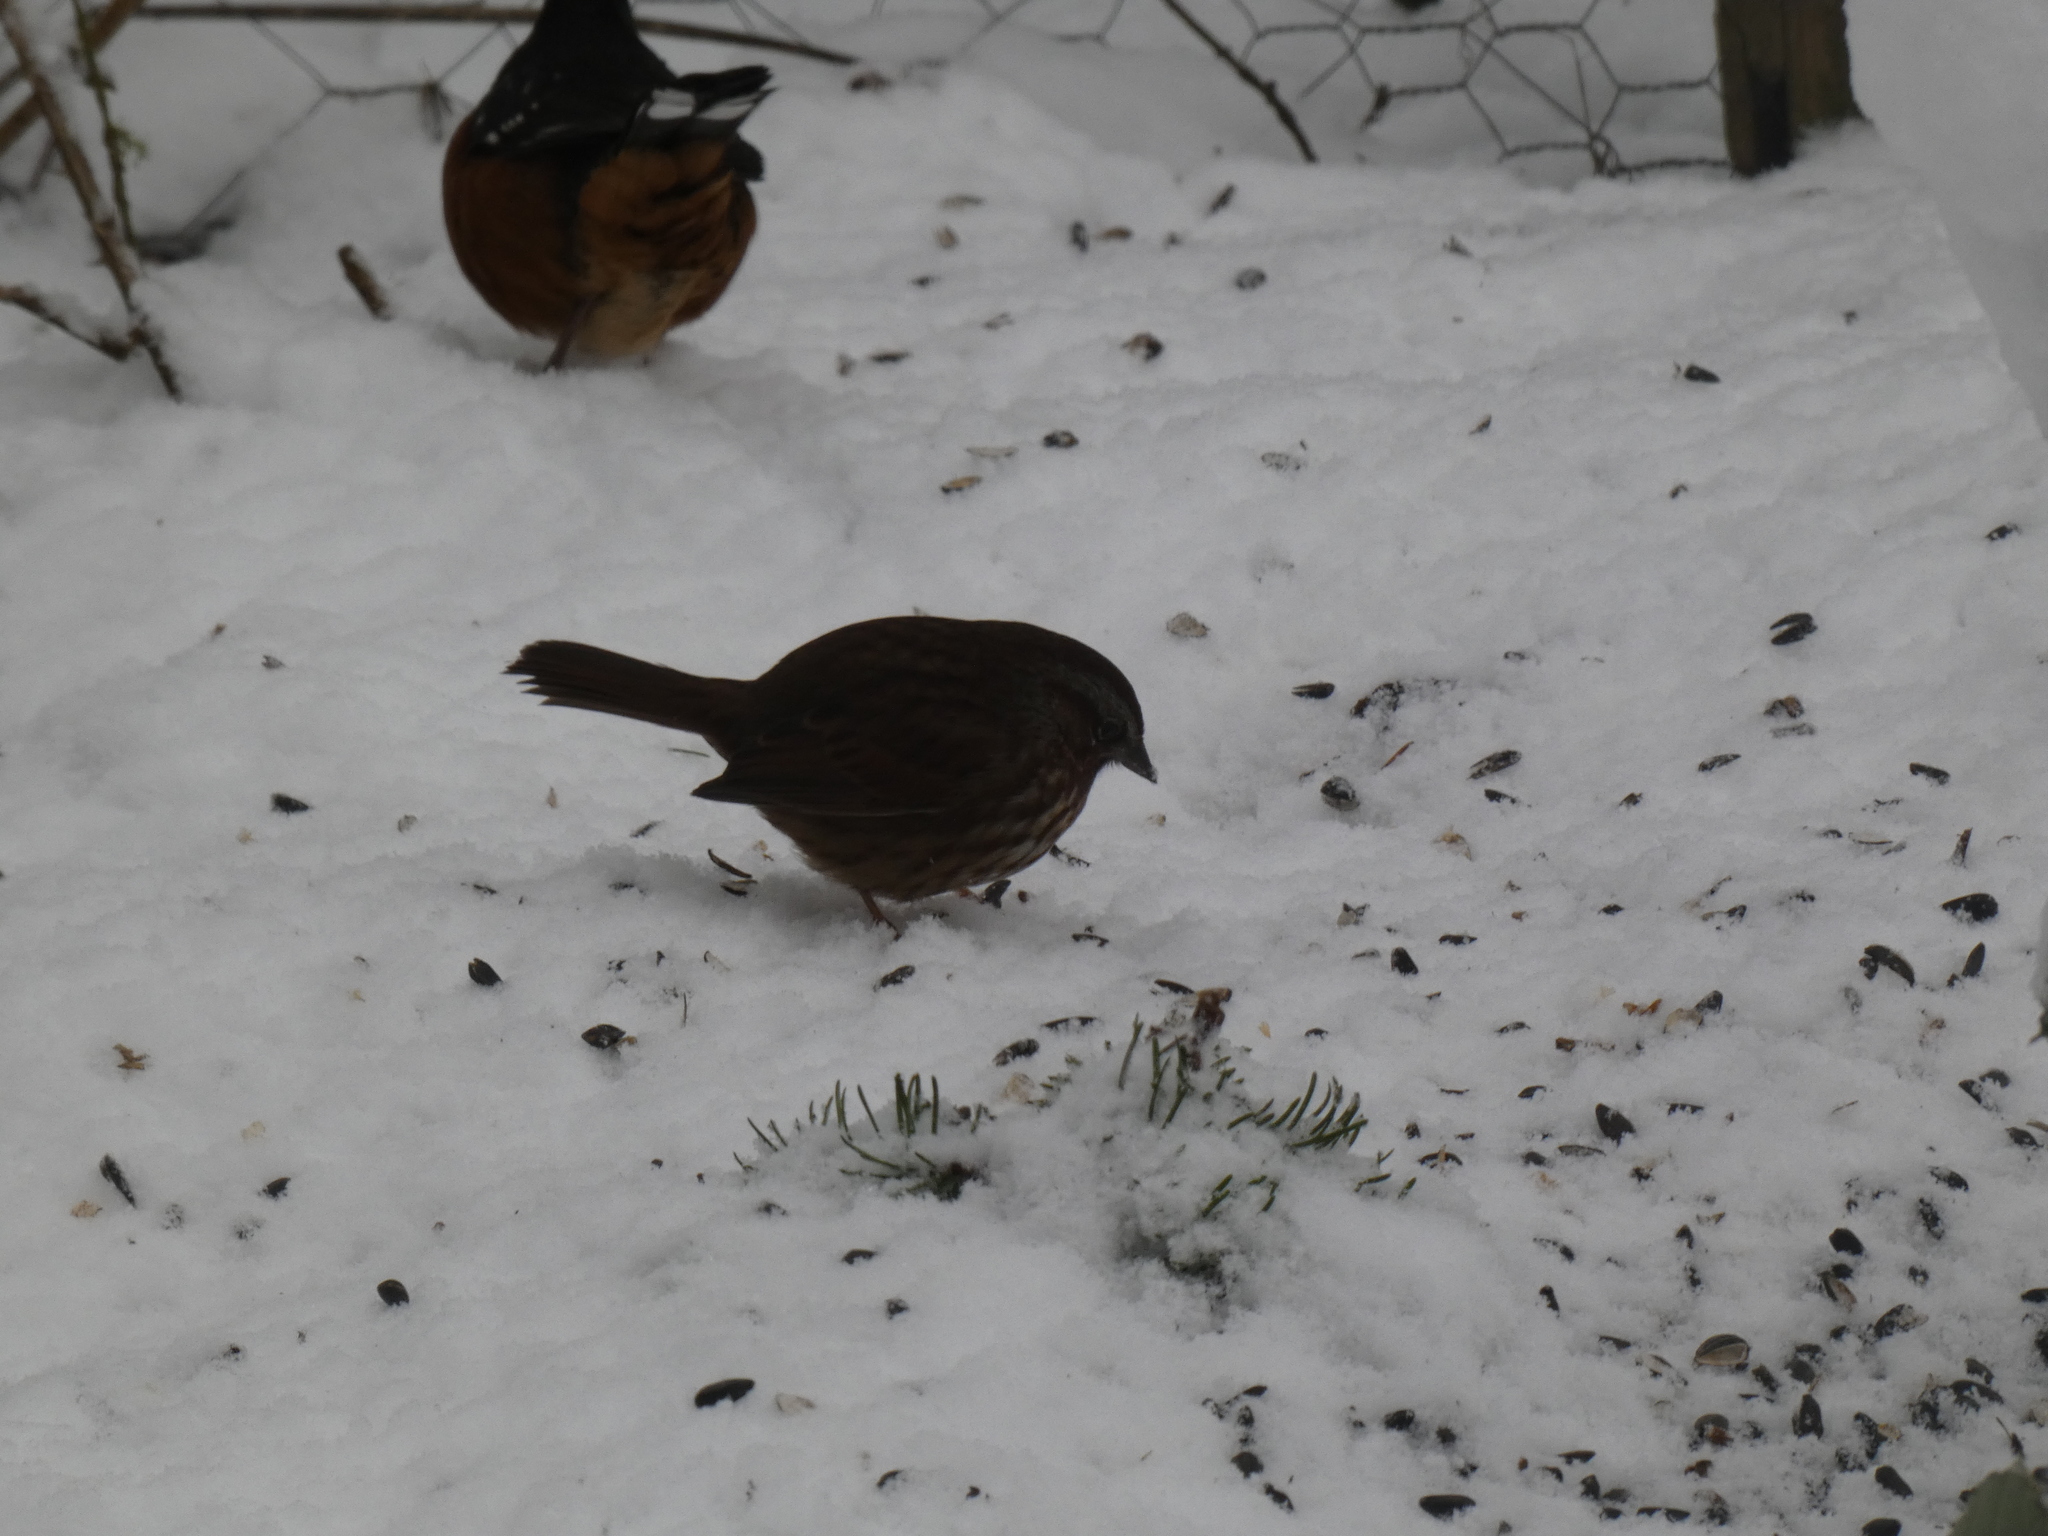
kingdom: Animalia
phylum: Chordata
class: Aves
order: Passeriformes
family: Passerellidae
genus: Melospiza
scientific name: Melospiza melodia
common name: Song sparrow
